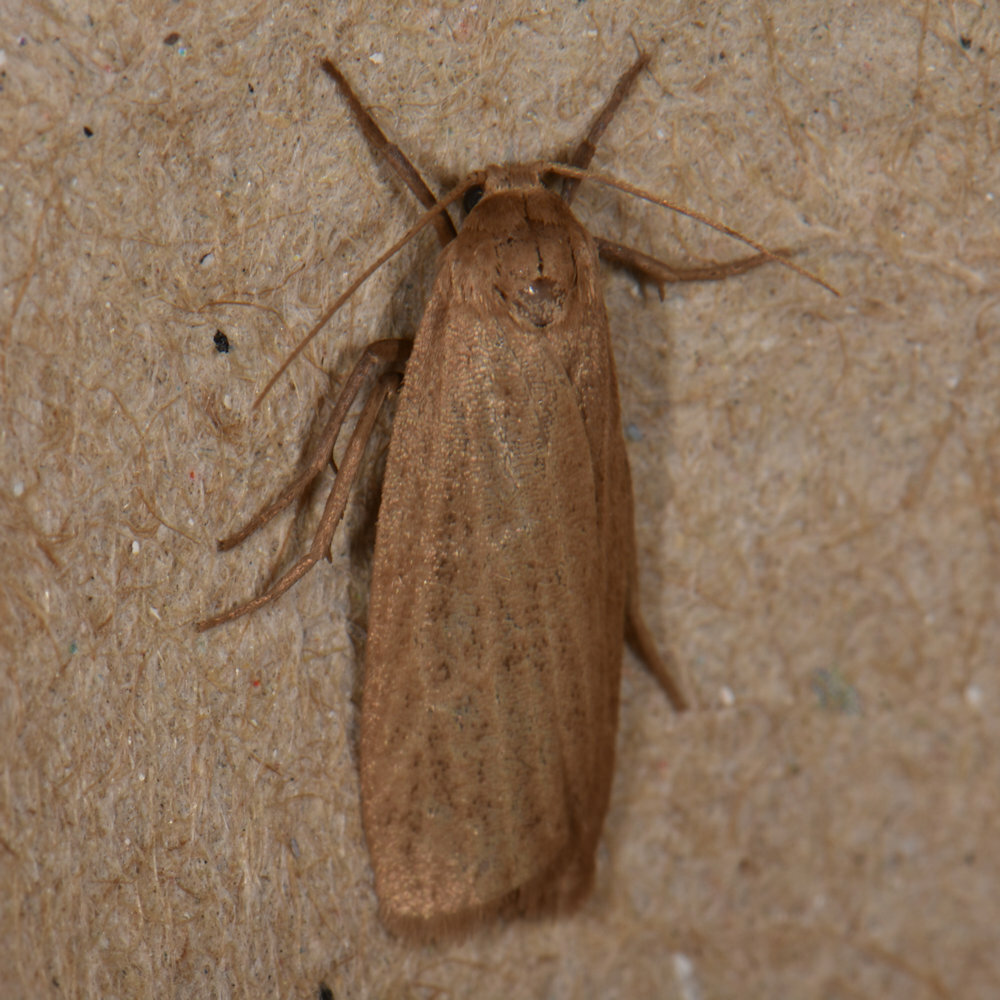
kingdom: Animalia
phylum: Arthropoda
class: Insecta
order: Lepidoptera
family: Erebidae
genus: Crambidia
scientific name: Crambidia pallida
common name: Pale lichen moth
